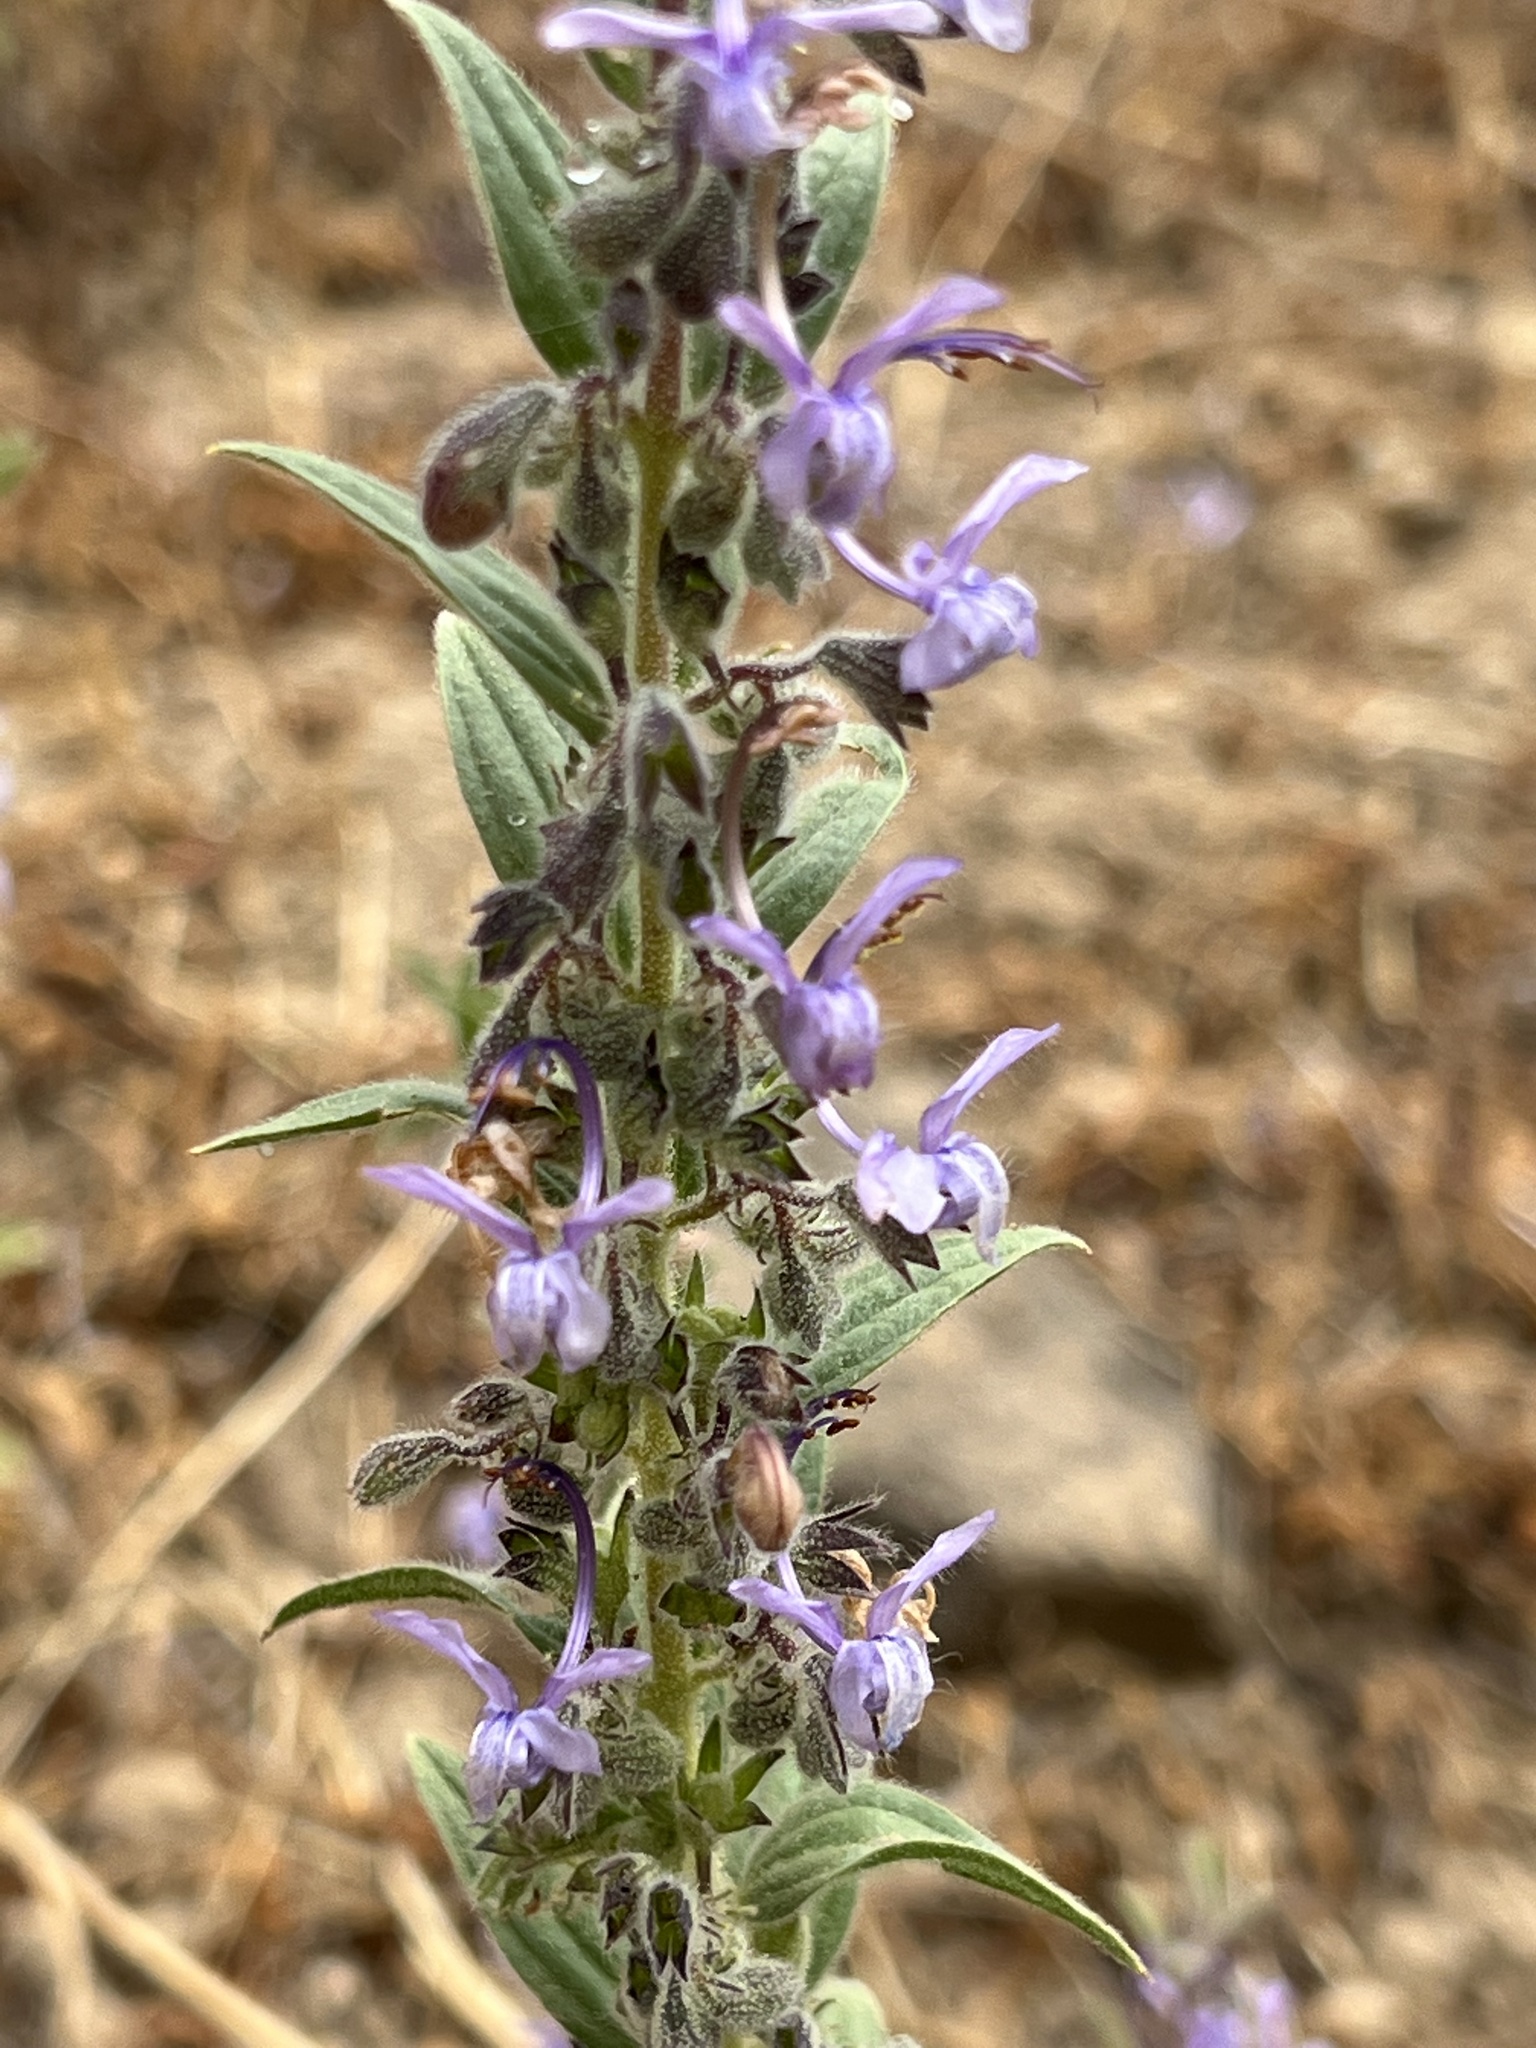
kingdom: Plantae
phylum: Tracheophyta
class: Magnoliopsida
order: Lamiales
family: Lamiaceae
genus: Trichostema
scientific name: Trichostema lanceolatum
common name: Vinegar-weed
